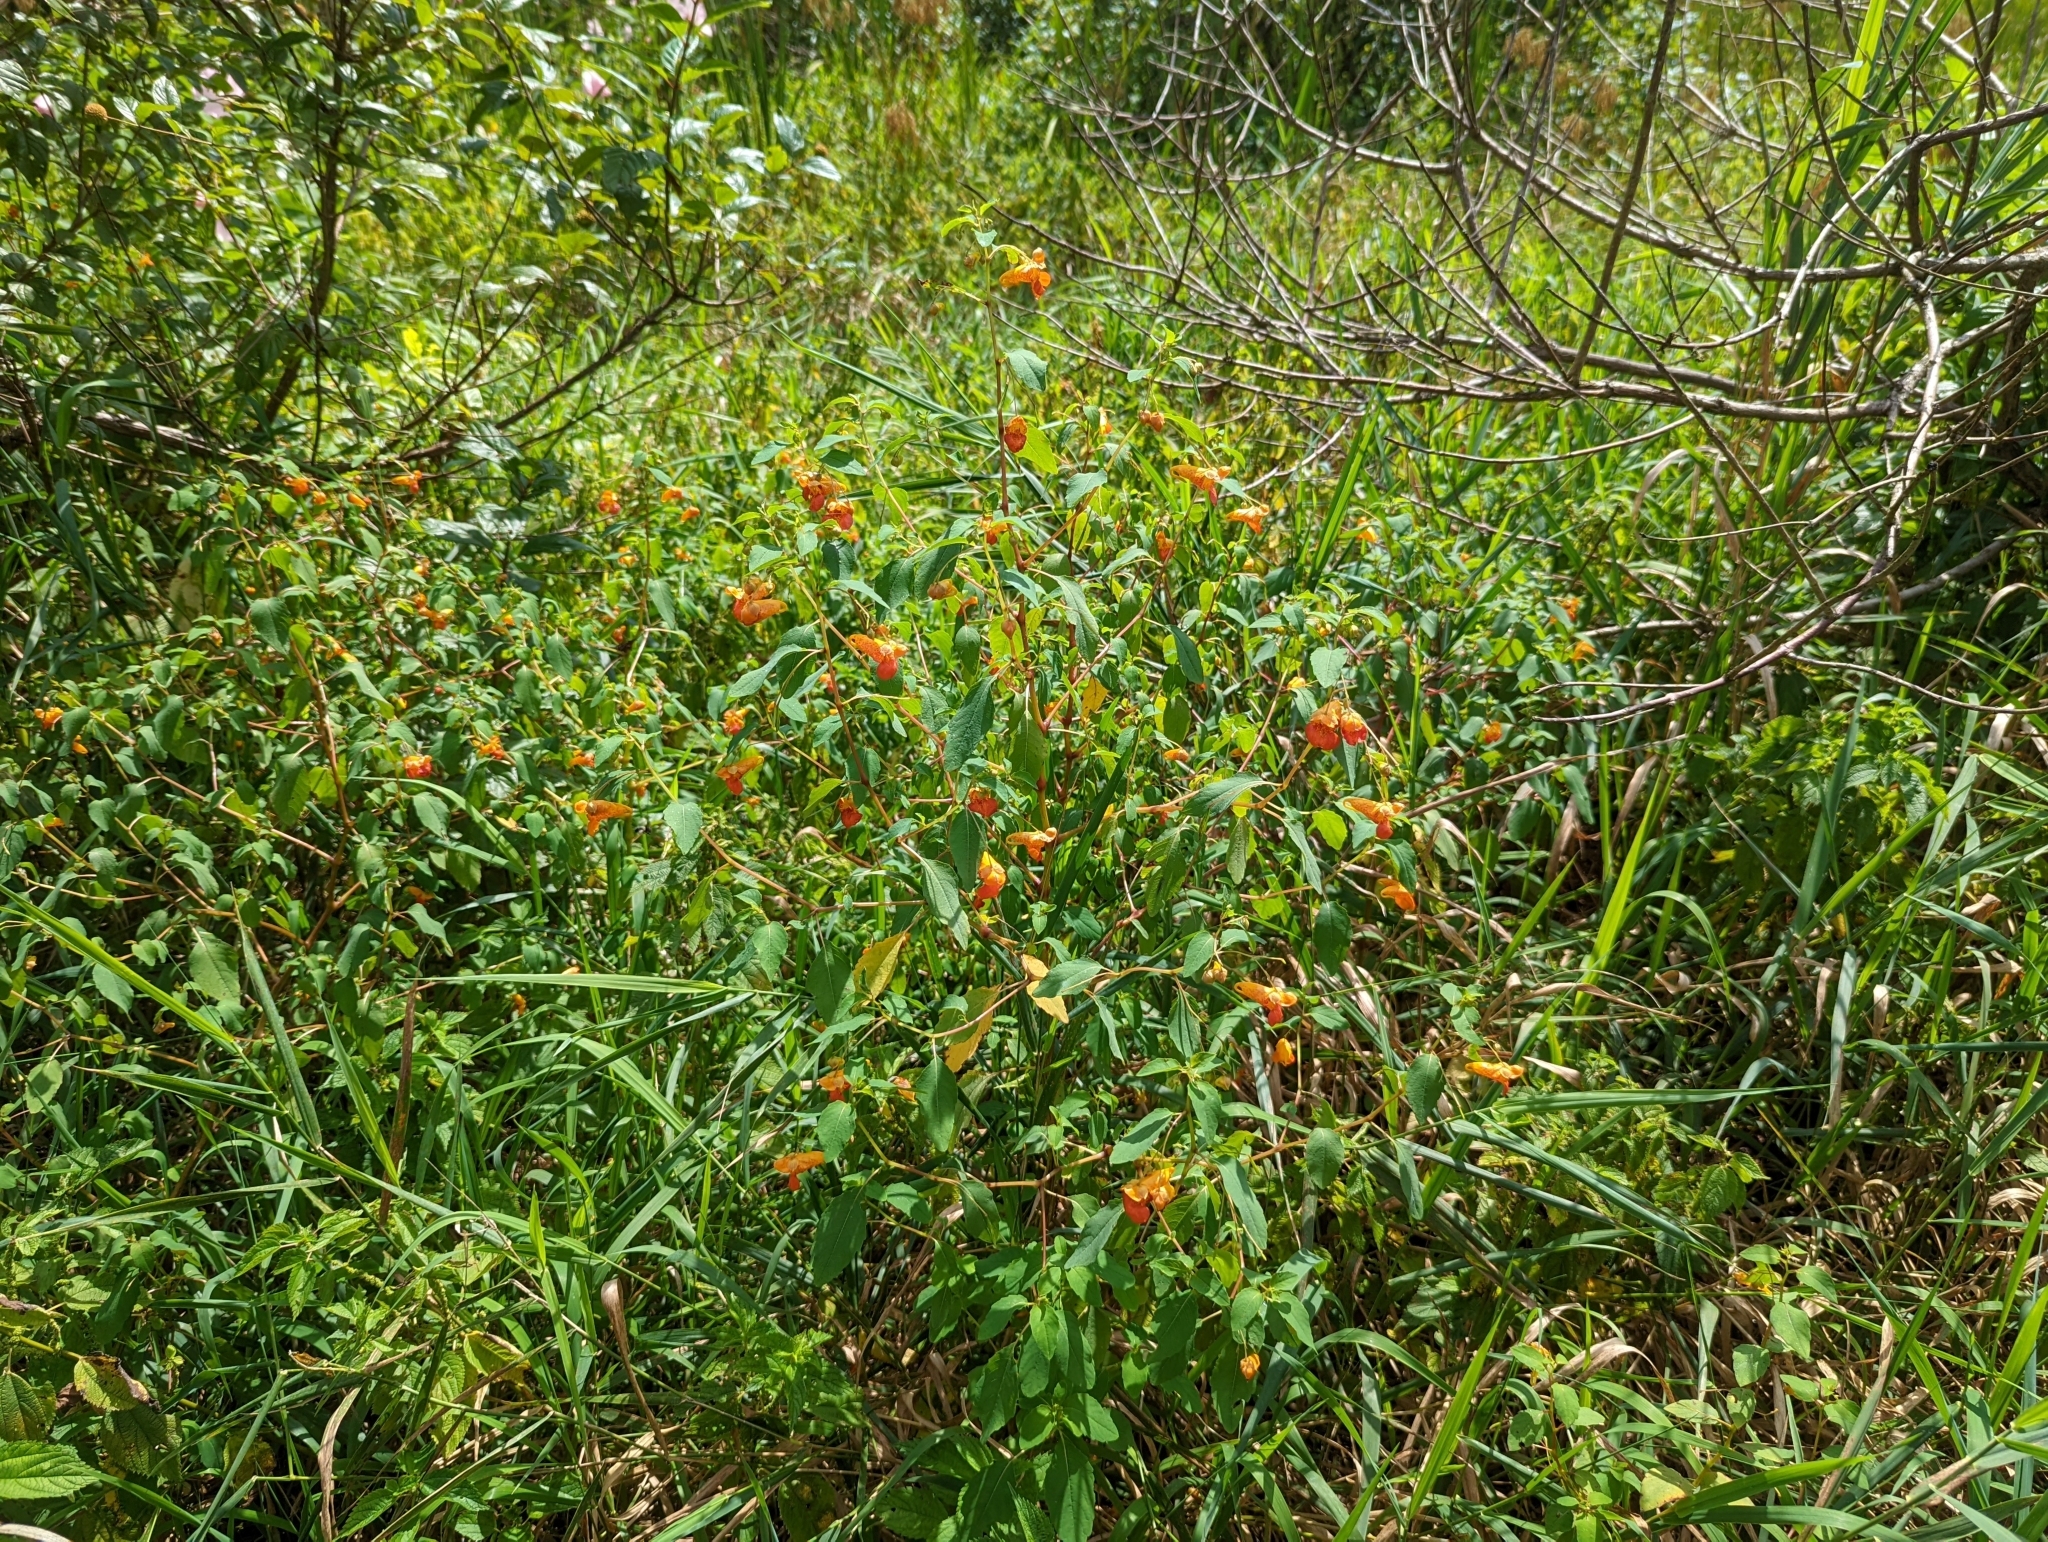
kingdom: Plantae
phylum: Tracheophyta
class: Magnoliopsida
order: Ericales
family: Balsaminaceae
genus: Impatiens
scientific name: Impatiens capensis
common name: Orange balsam
